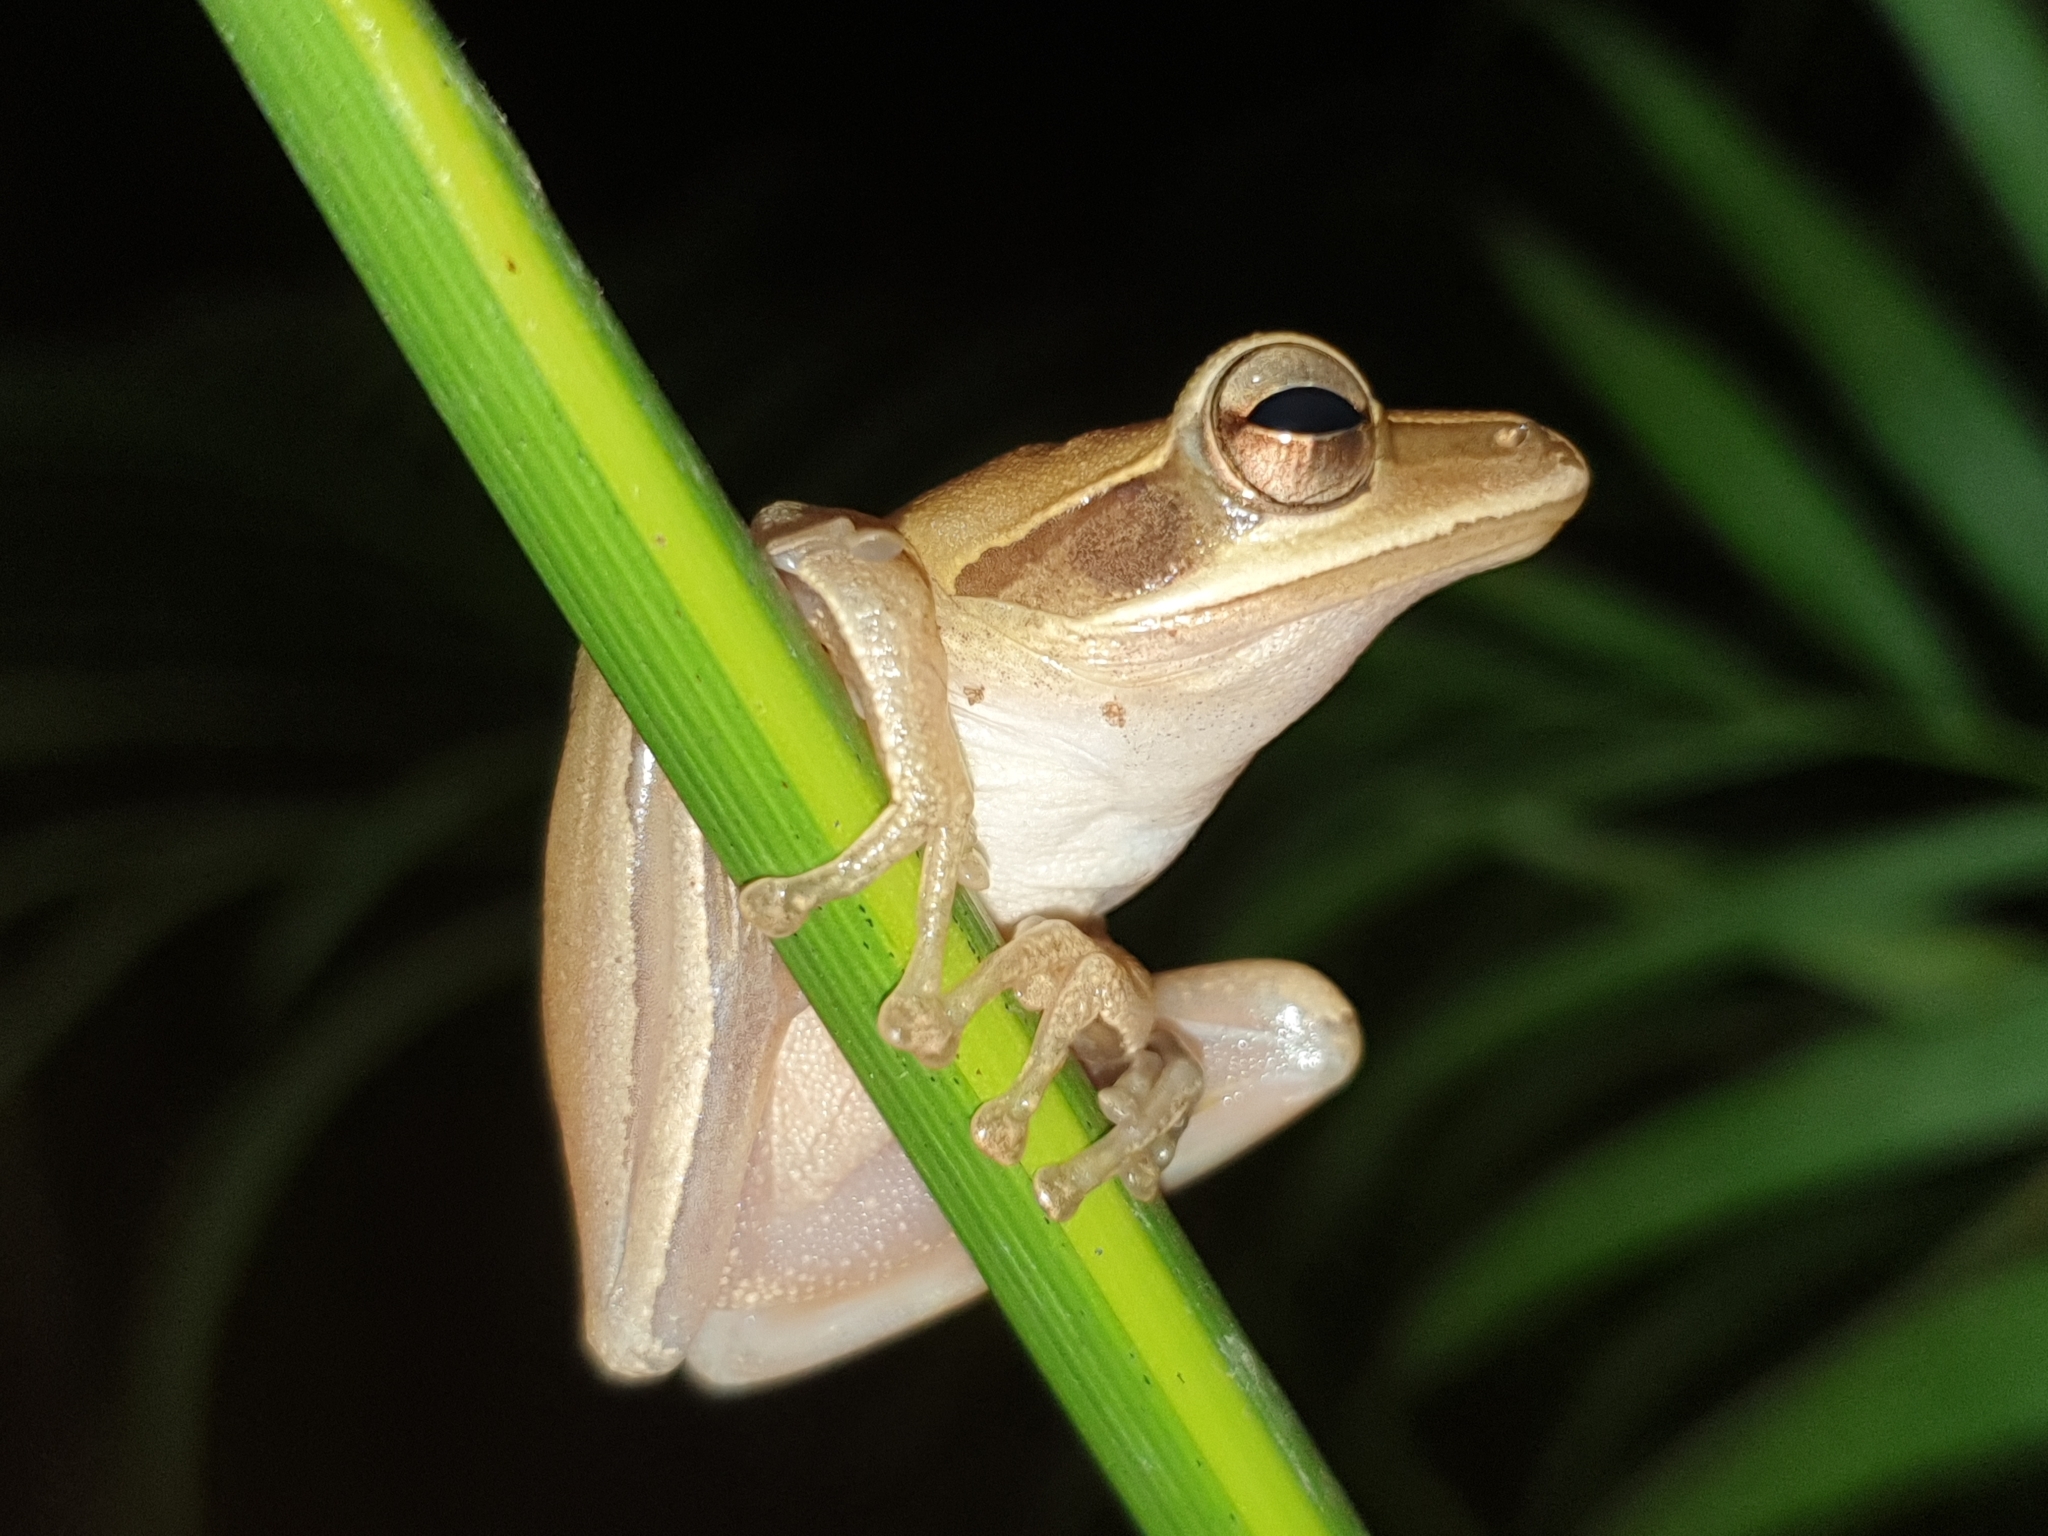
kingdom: Animalia
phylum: Chordata
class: Amphibia
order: Anura
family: Rhacophoridae
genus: Polypedates
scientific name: Polypedates maculatus
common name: Himalayan tree frog
